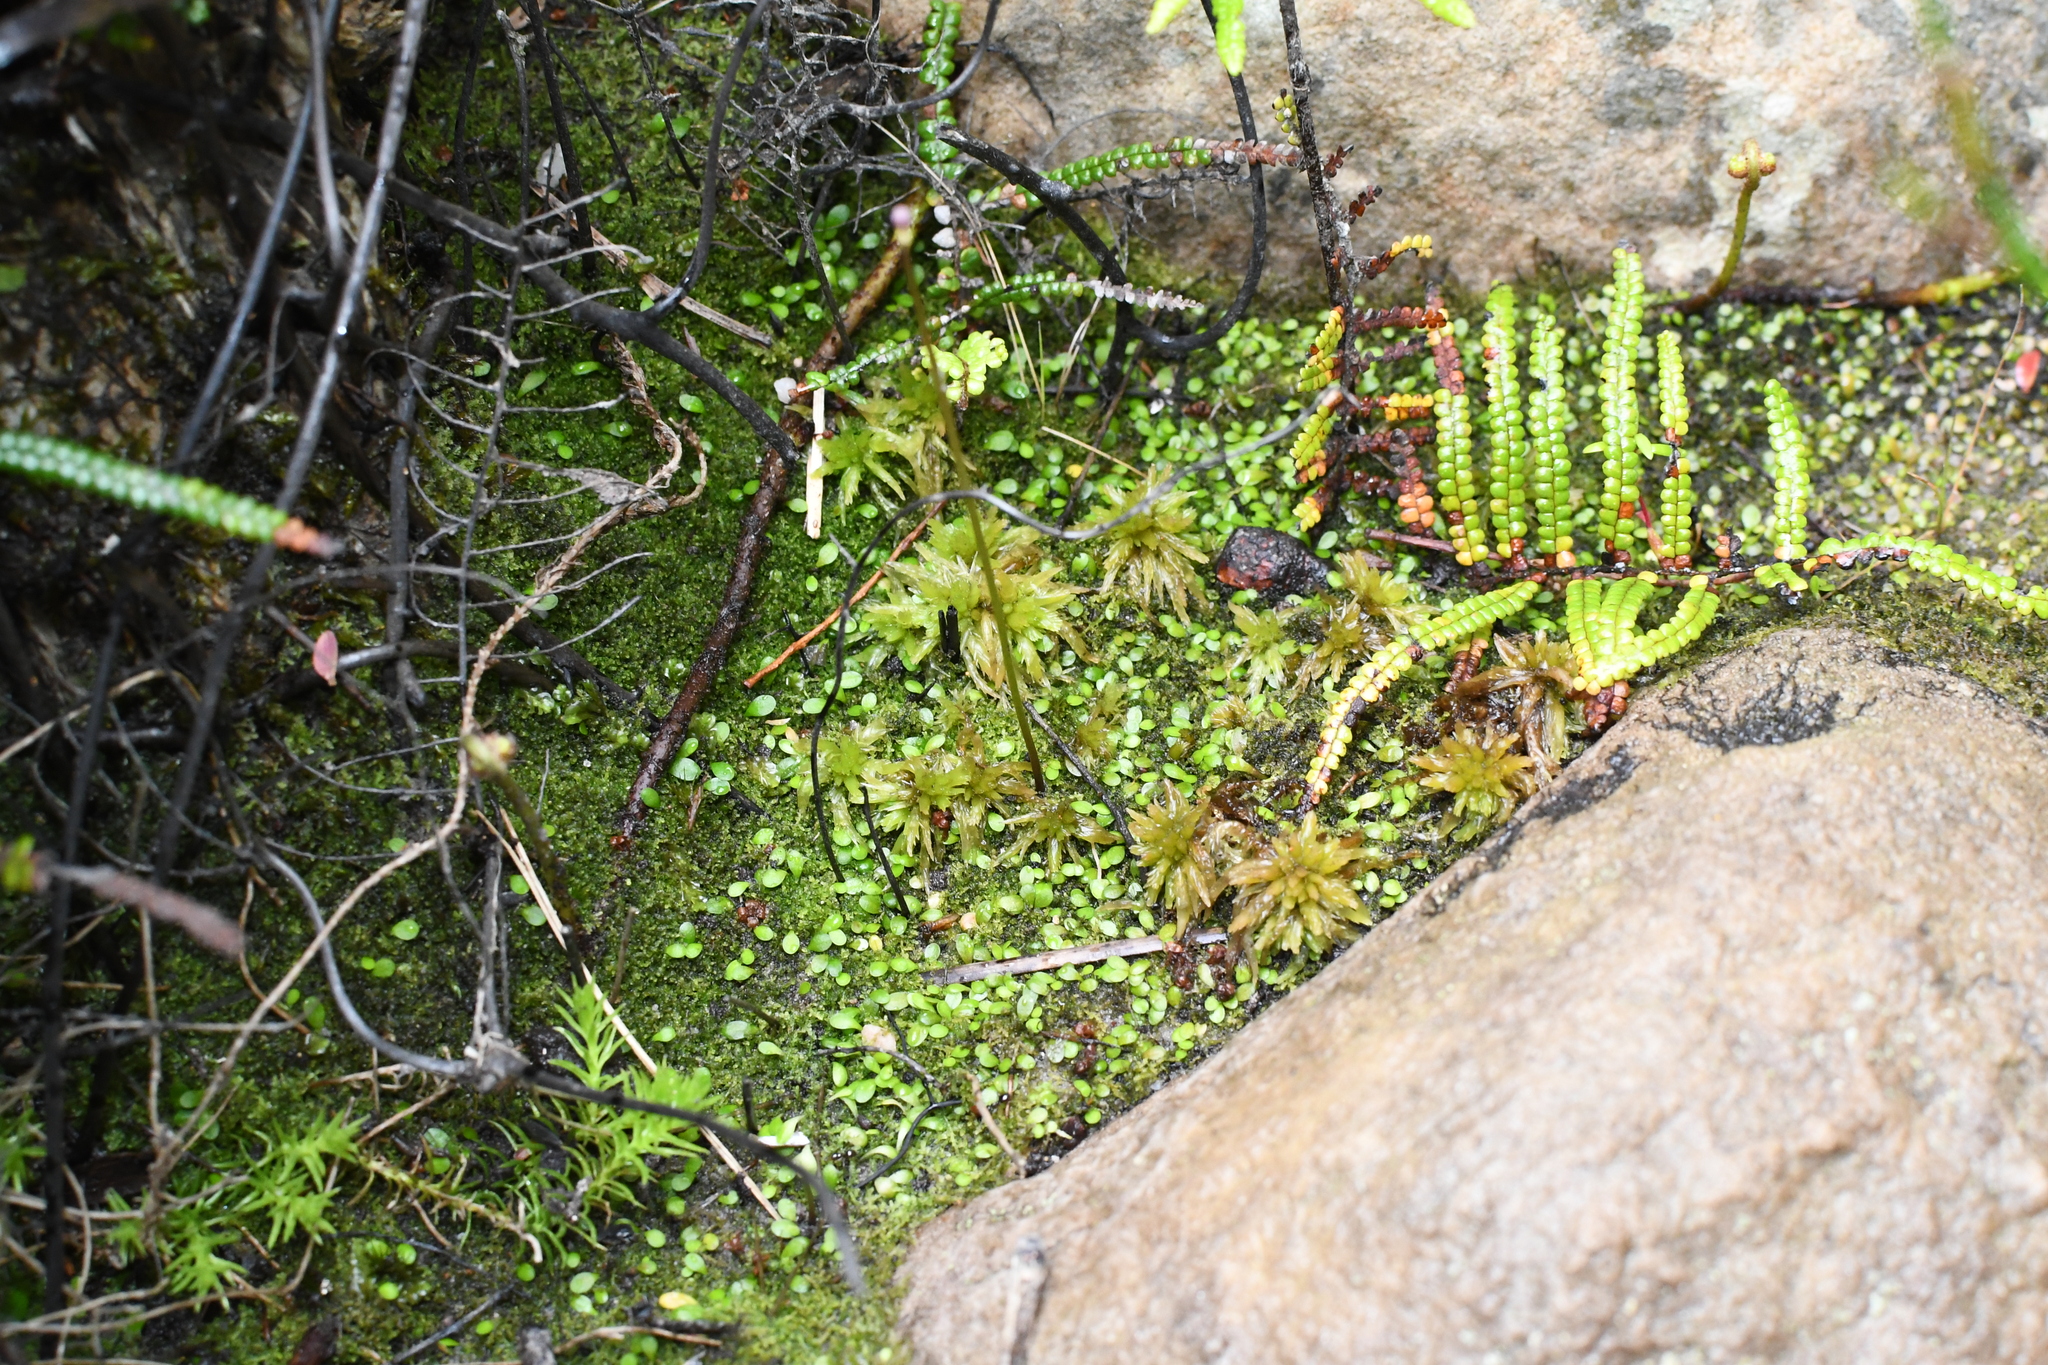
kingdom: Plantae
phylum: Bryophyta
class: Sphagnopsida
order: Sphagnales
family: Sphagnaceae
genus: Sphagnum
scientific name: Sphagnum novozelandicum
